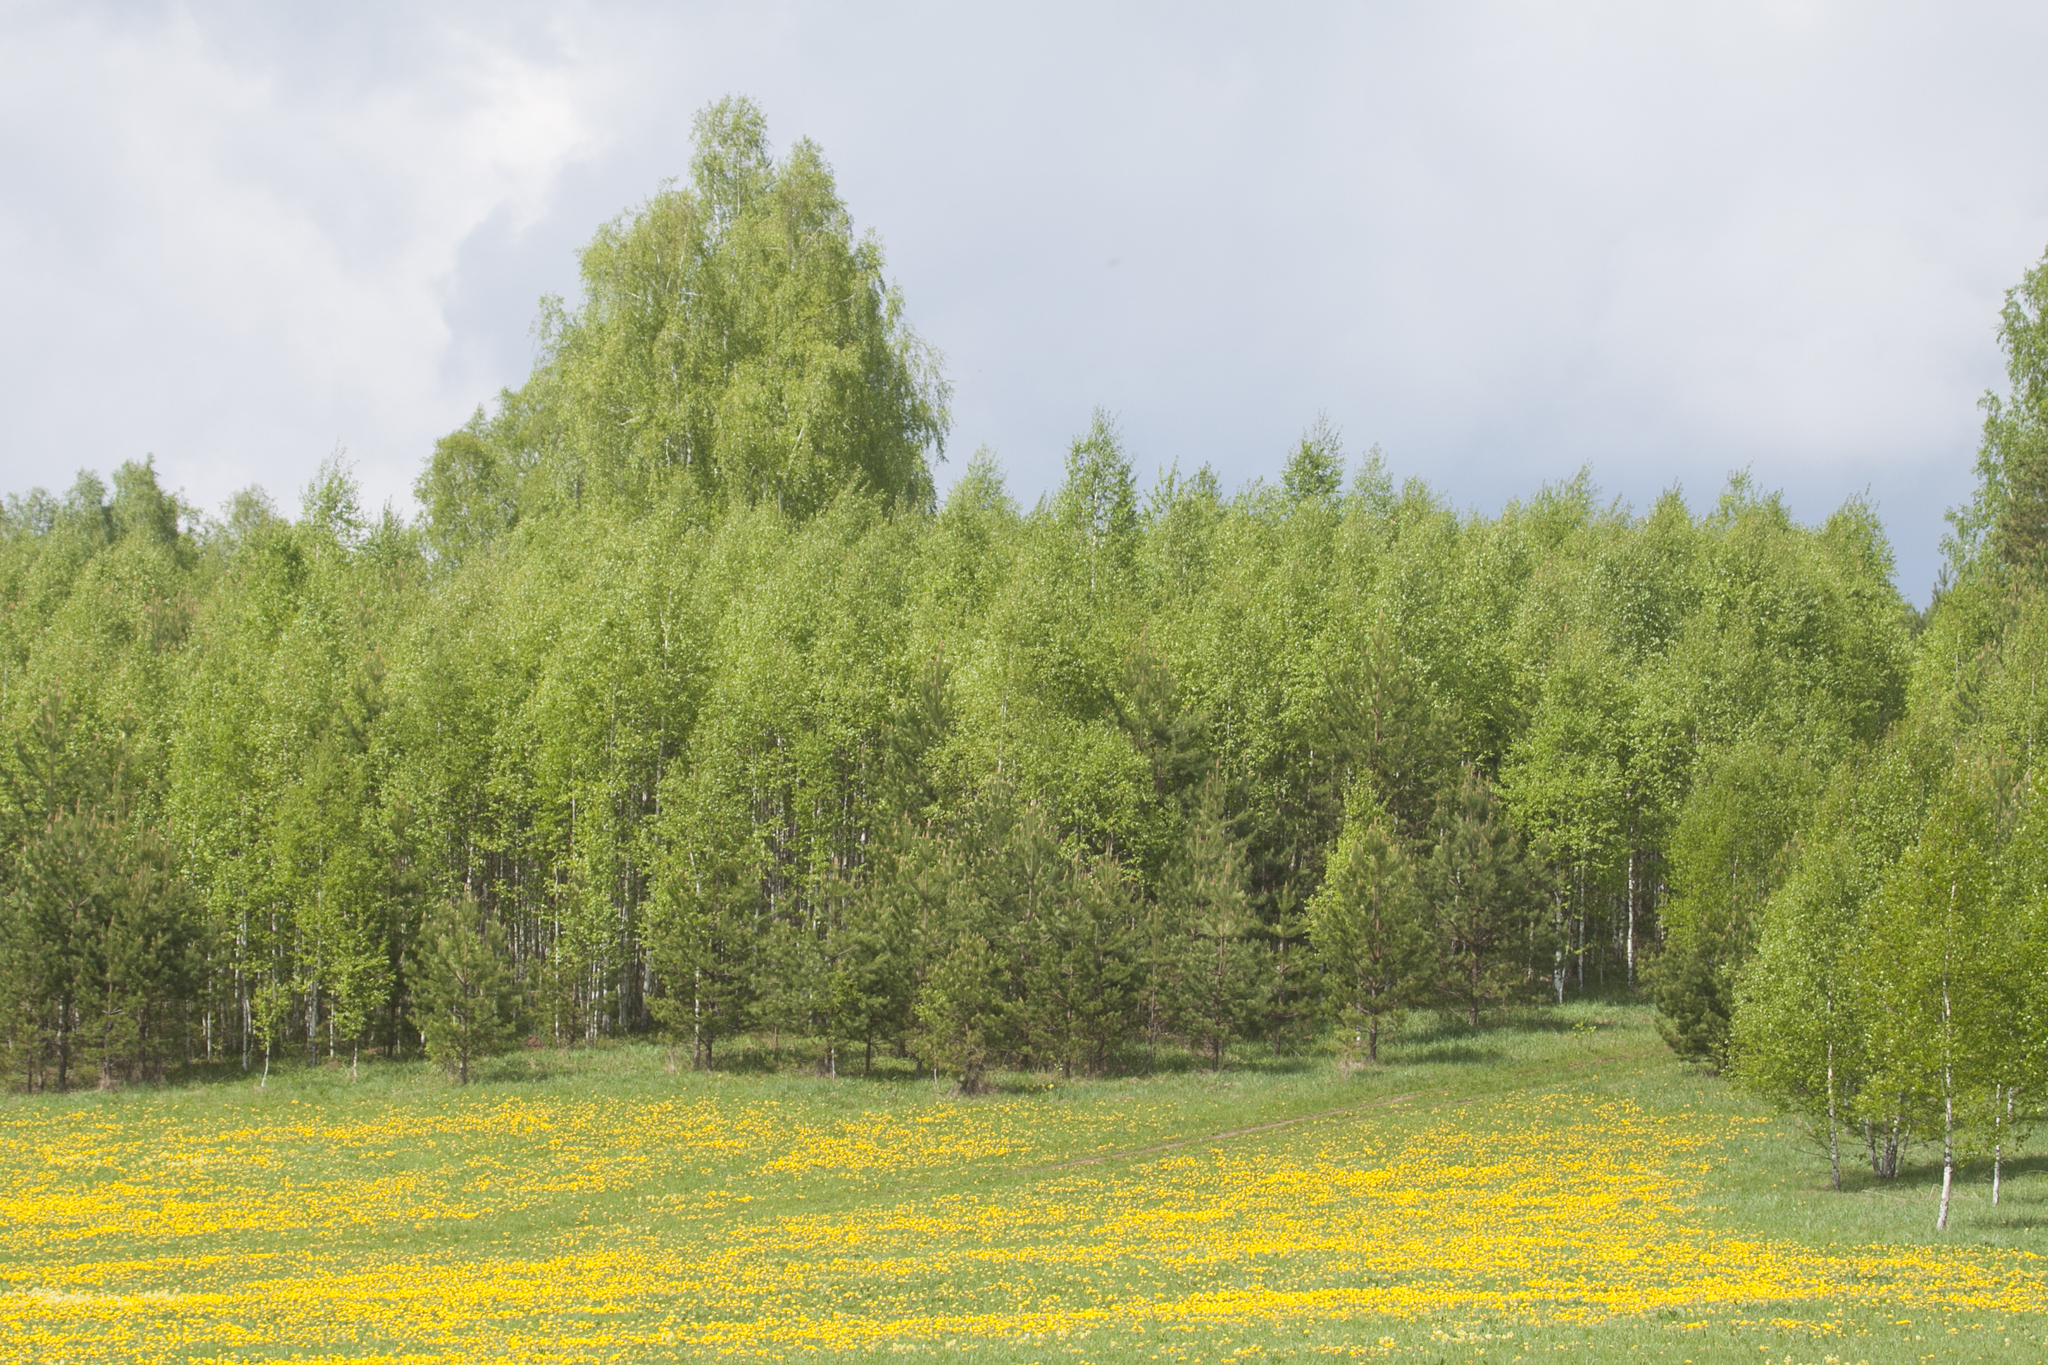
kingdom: Plantae
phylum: Tracheophyta
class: Magnoliopsida
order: Asterales
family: Asteraceae
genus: Taraxacum
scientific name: Taraxacum officinale
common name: Common dandelion
